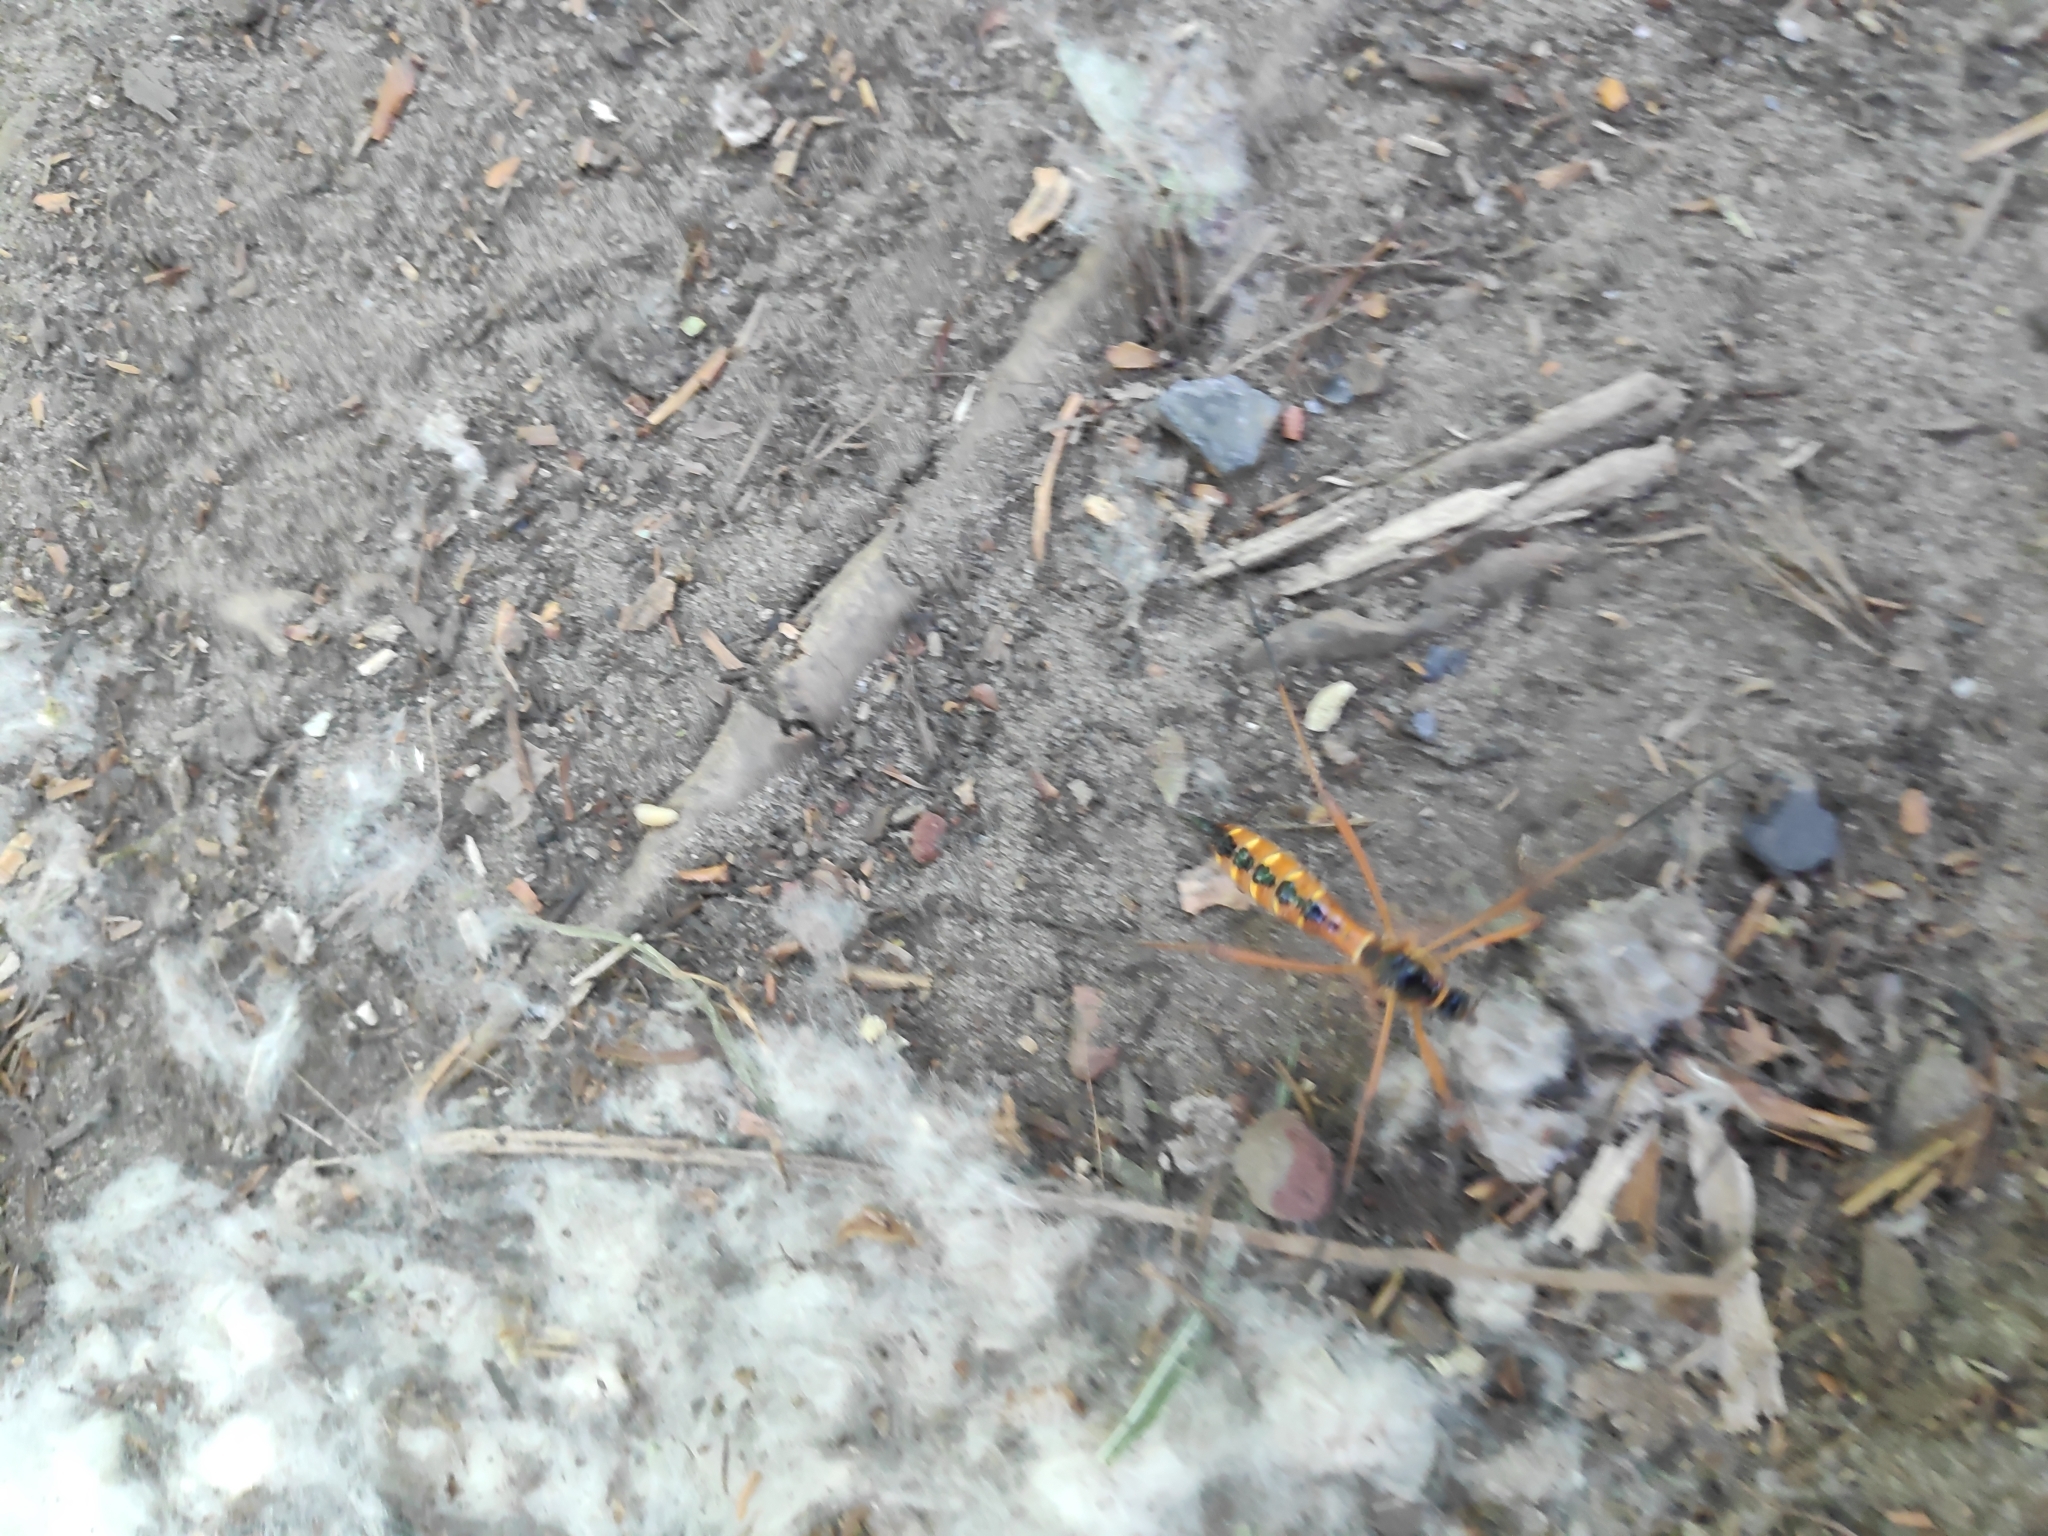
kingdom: Animalia
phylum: Arthropoda
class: Insecta
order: Diptera
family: Tipulidae
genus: Ctenophora
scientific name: Ctenophora pectinicornis
